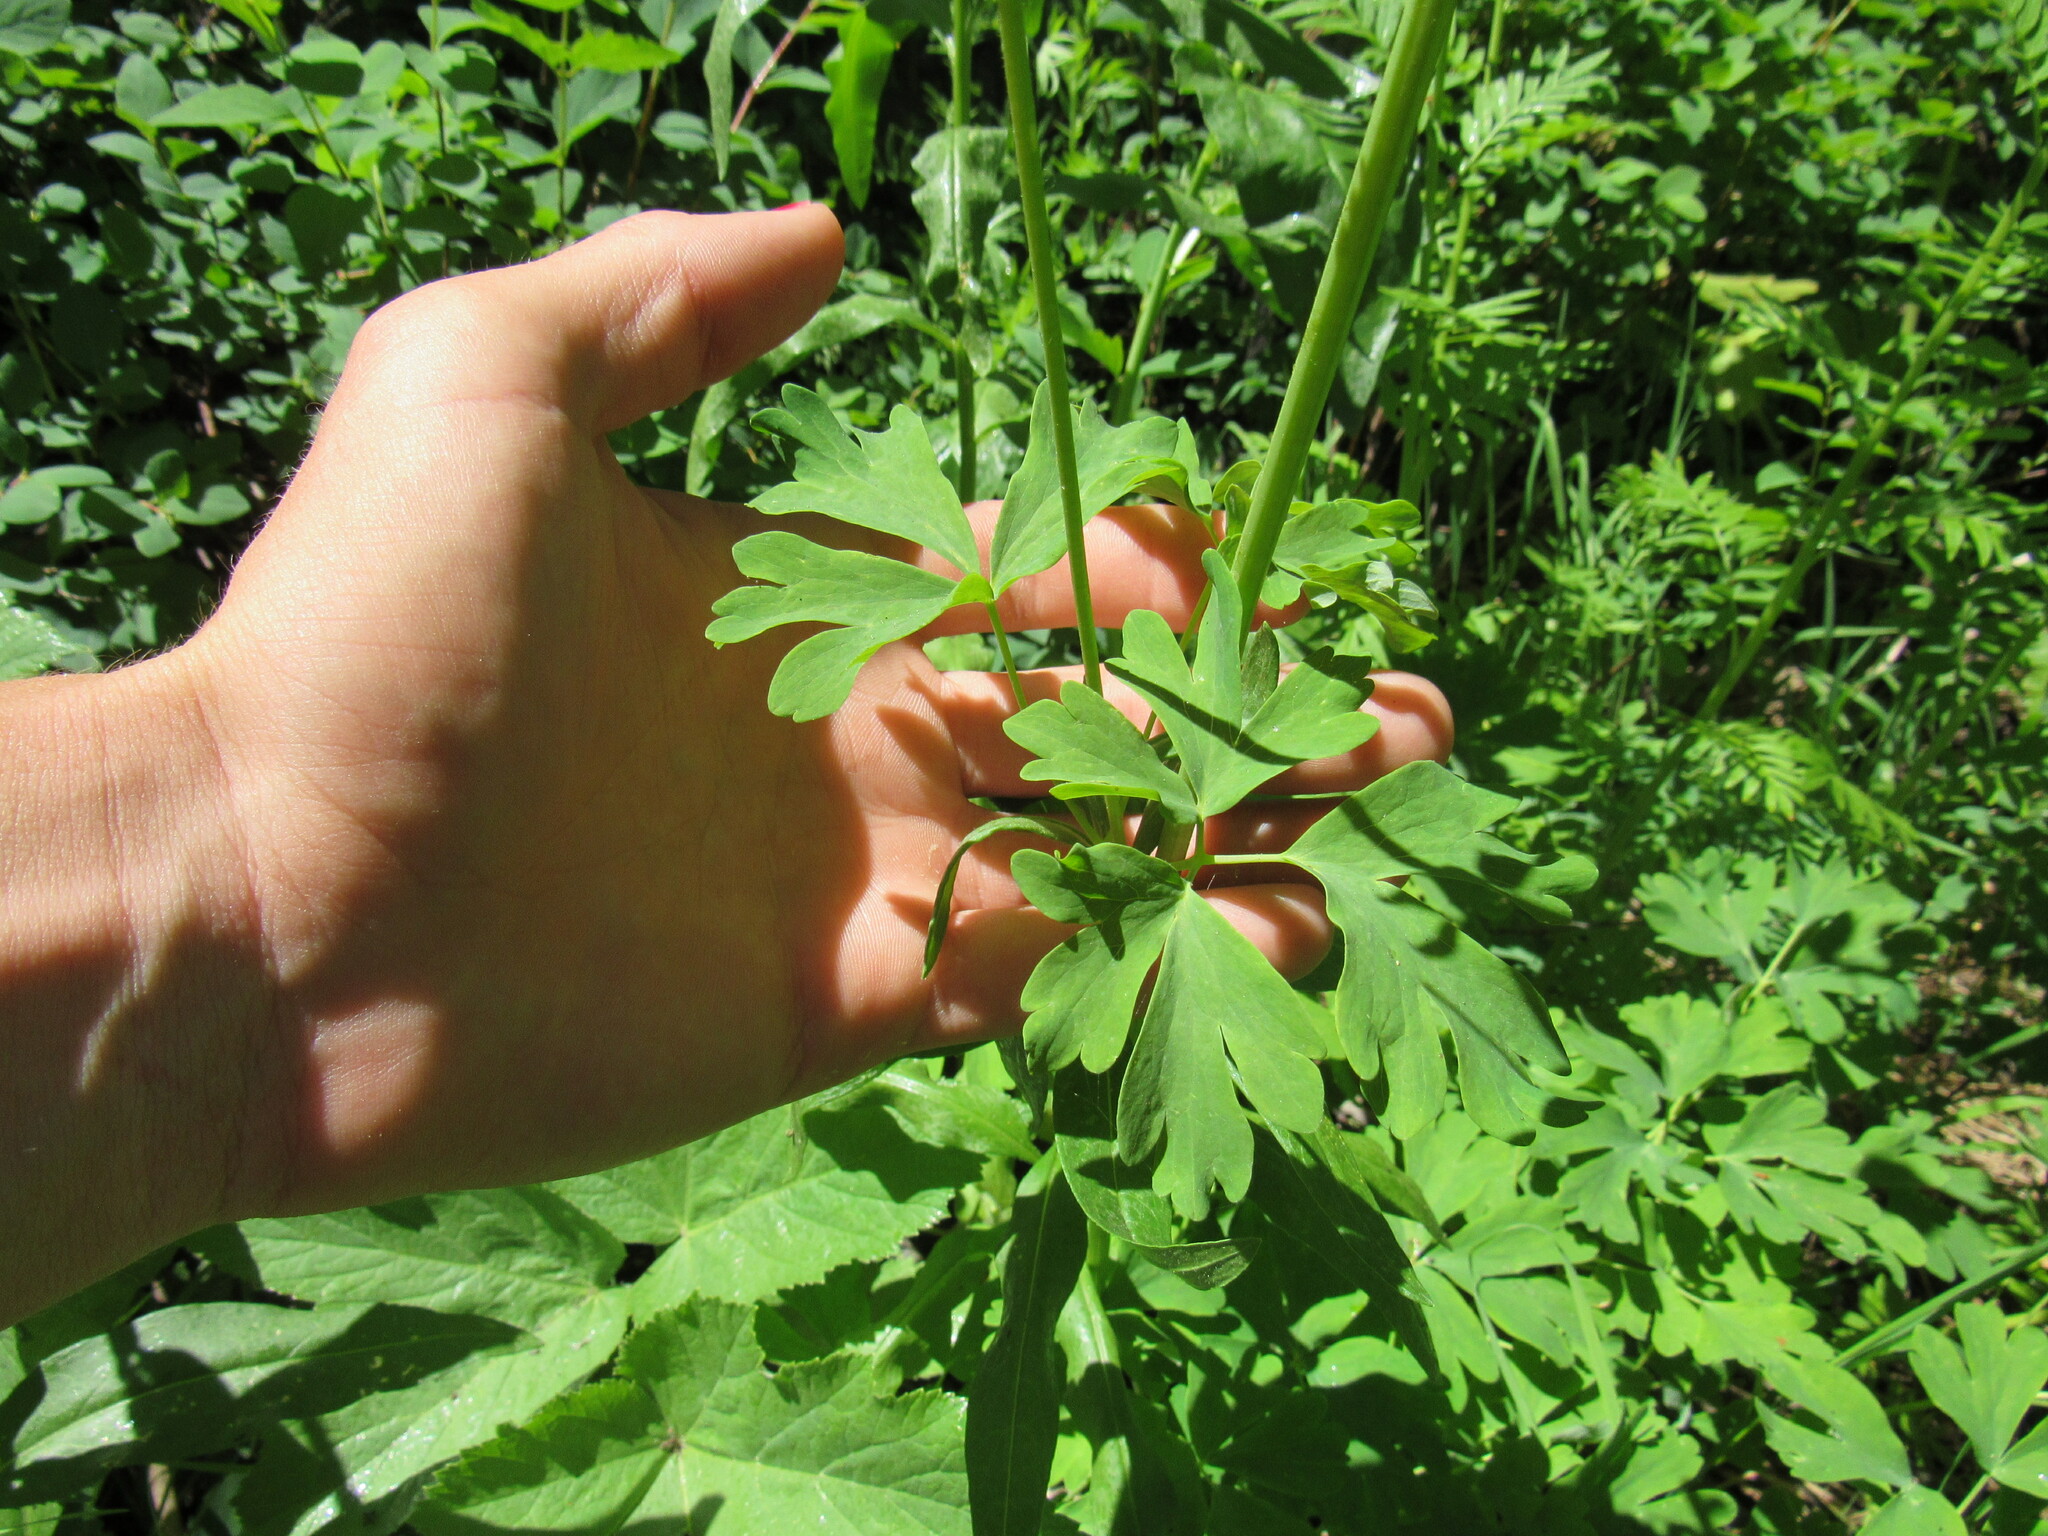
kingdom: Plantae
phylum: Tracheophyta
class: Magnoliopsida
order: Ranunculales
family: Ranunculaceae
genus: Aquilegia
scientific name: Aquilegia coerulea
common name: Rocky mountain columbine
